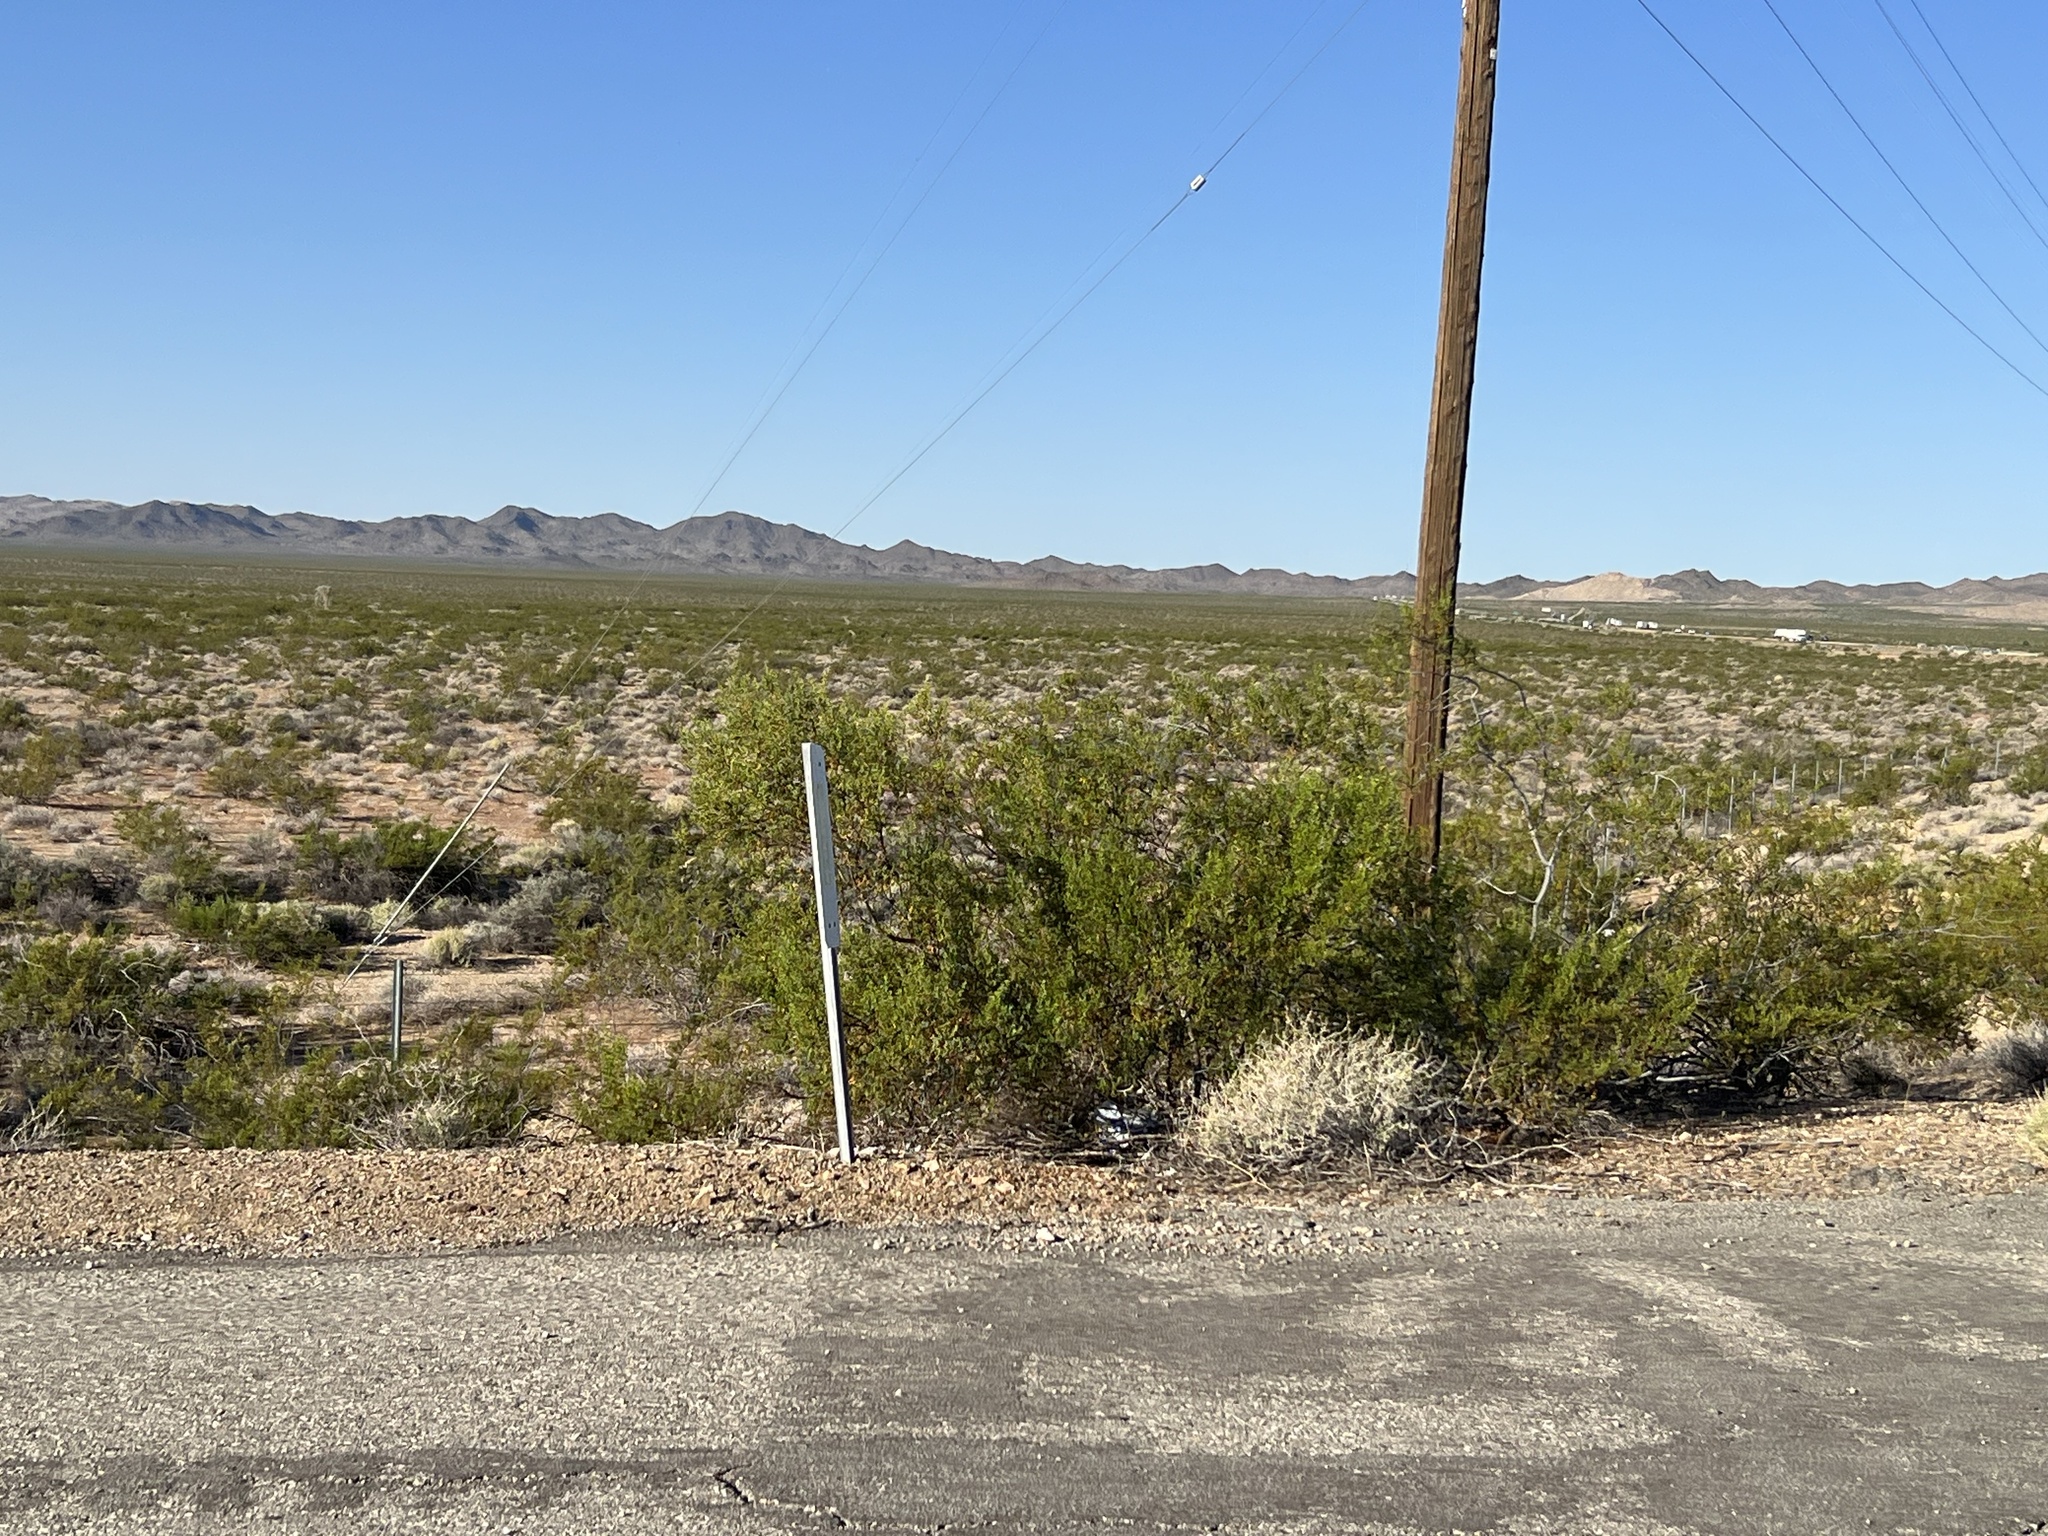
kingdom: Plantae
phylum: Tracheophyta
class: Magnoliopsida
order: Zygophyllales
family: Zygophyllaceae
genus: Larrea
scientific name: Larrea tridentata
